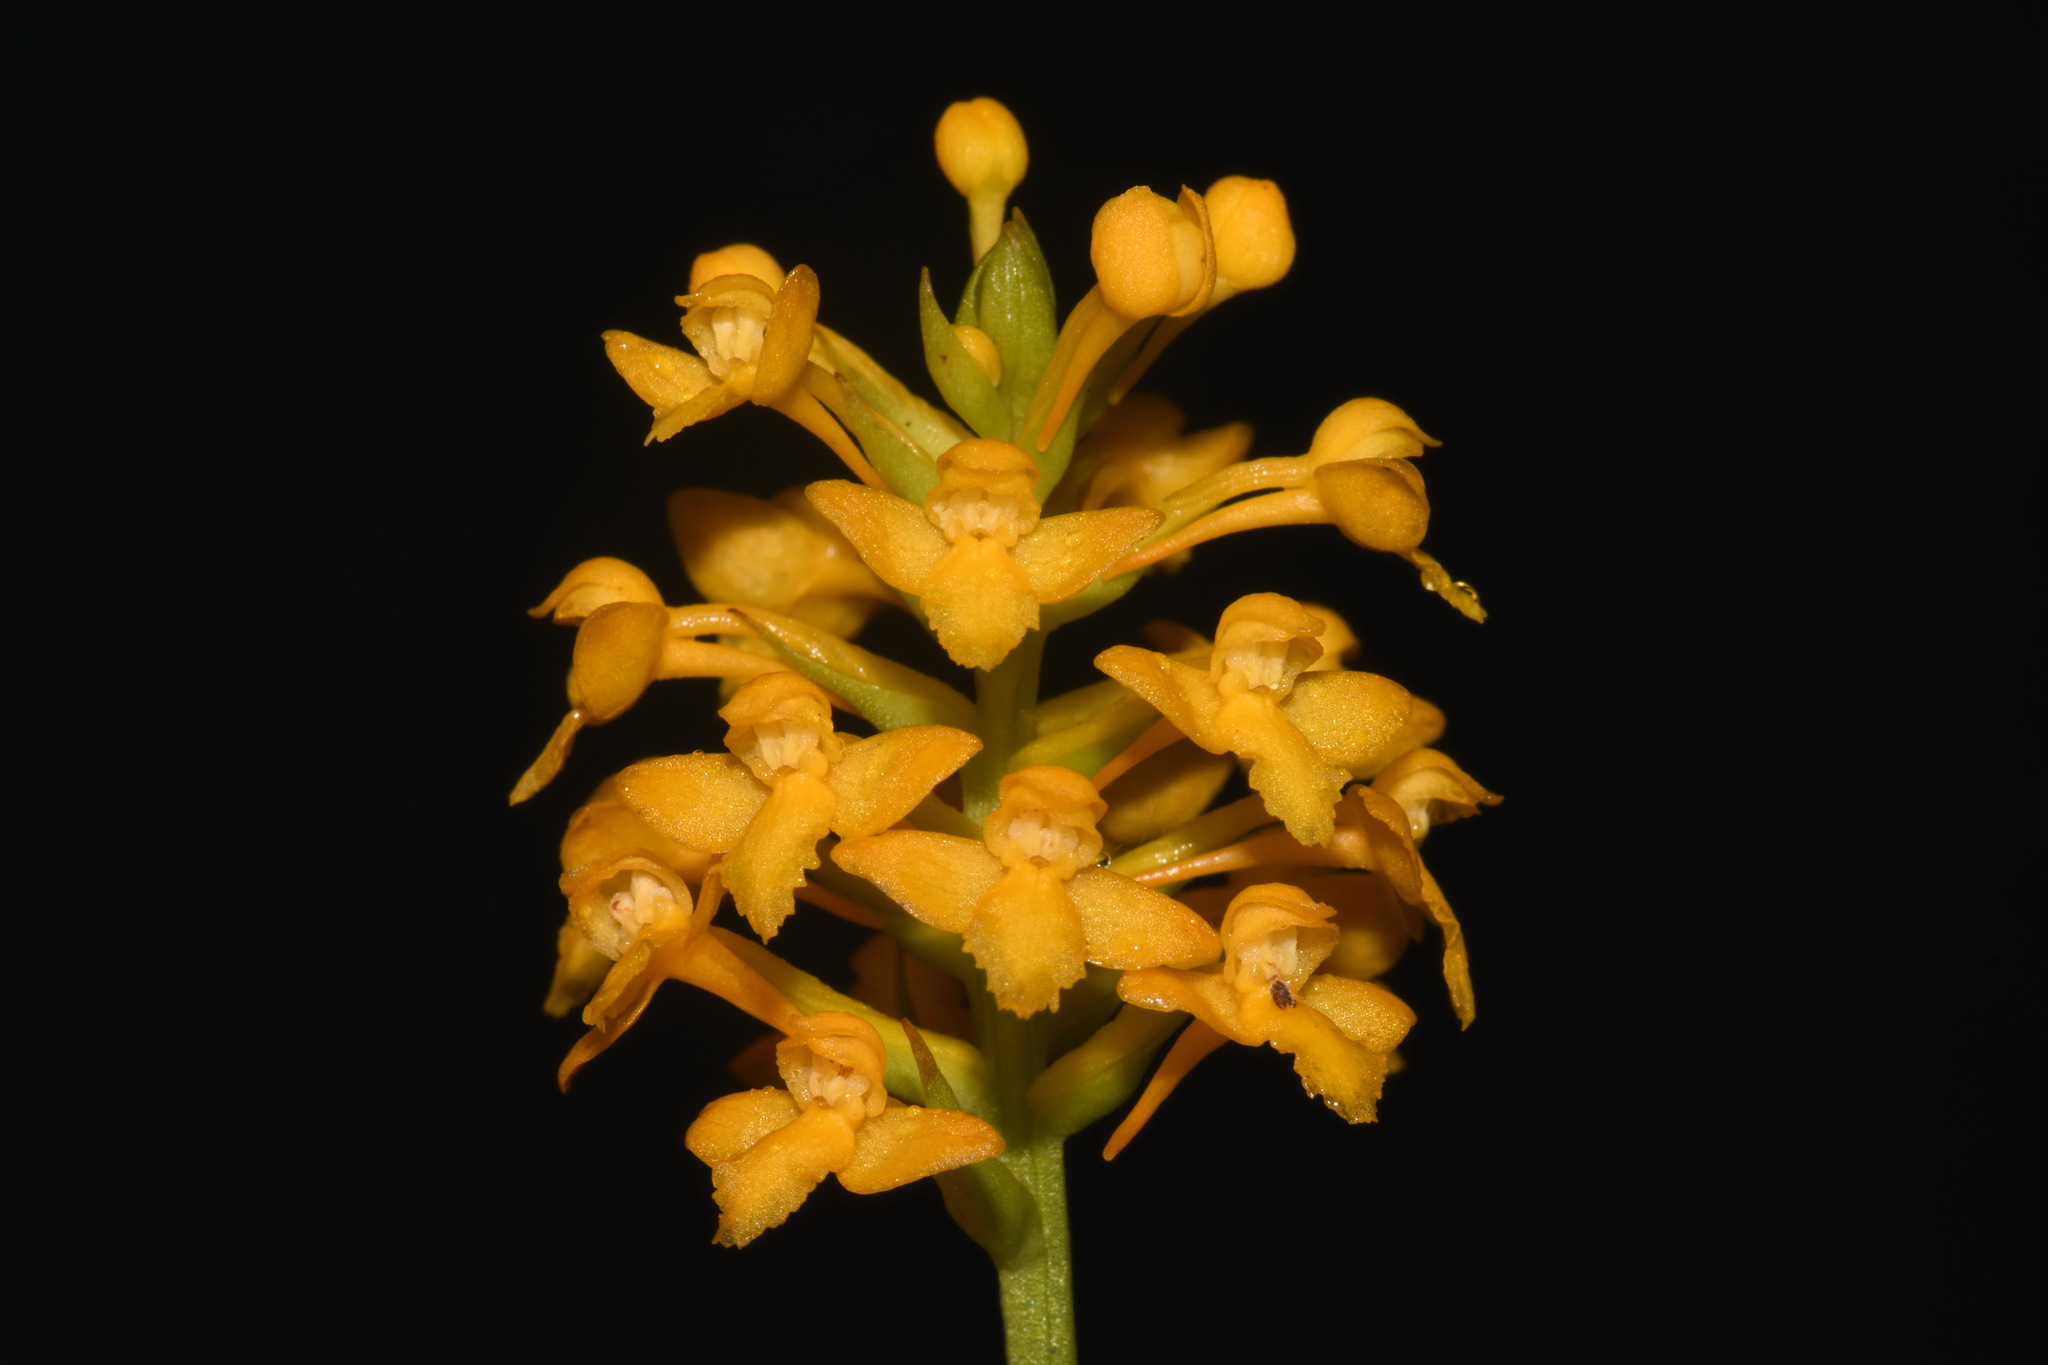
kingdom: Plantae
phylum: Tracheophyta
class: Liliopsida
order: Asparagales
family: Orchidaceae
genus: Platanthera
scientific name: Platanthera integra
